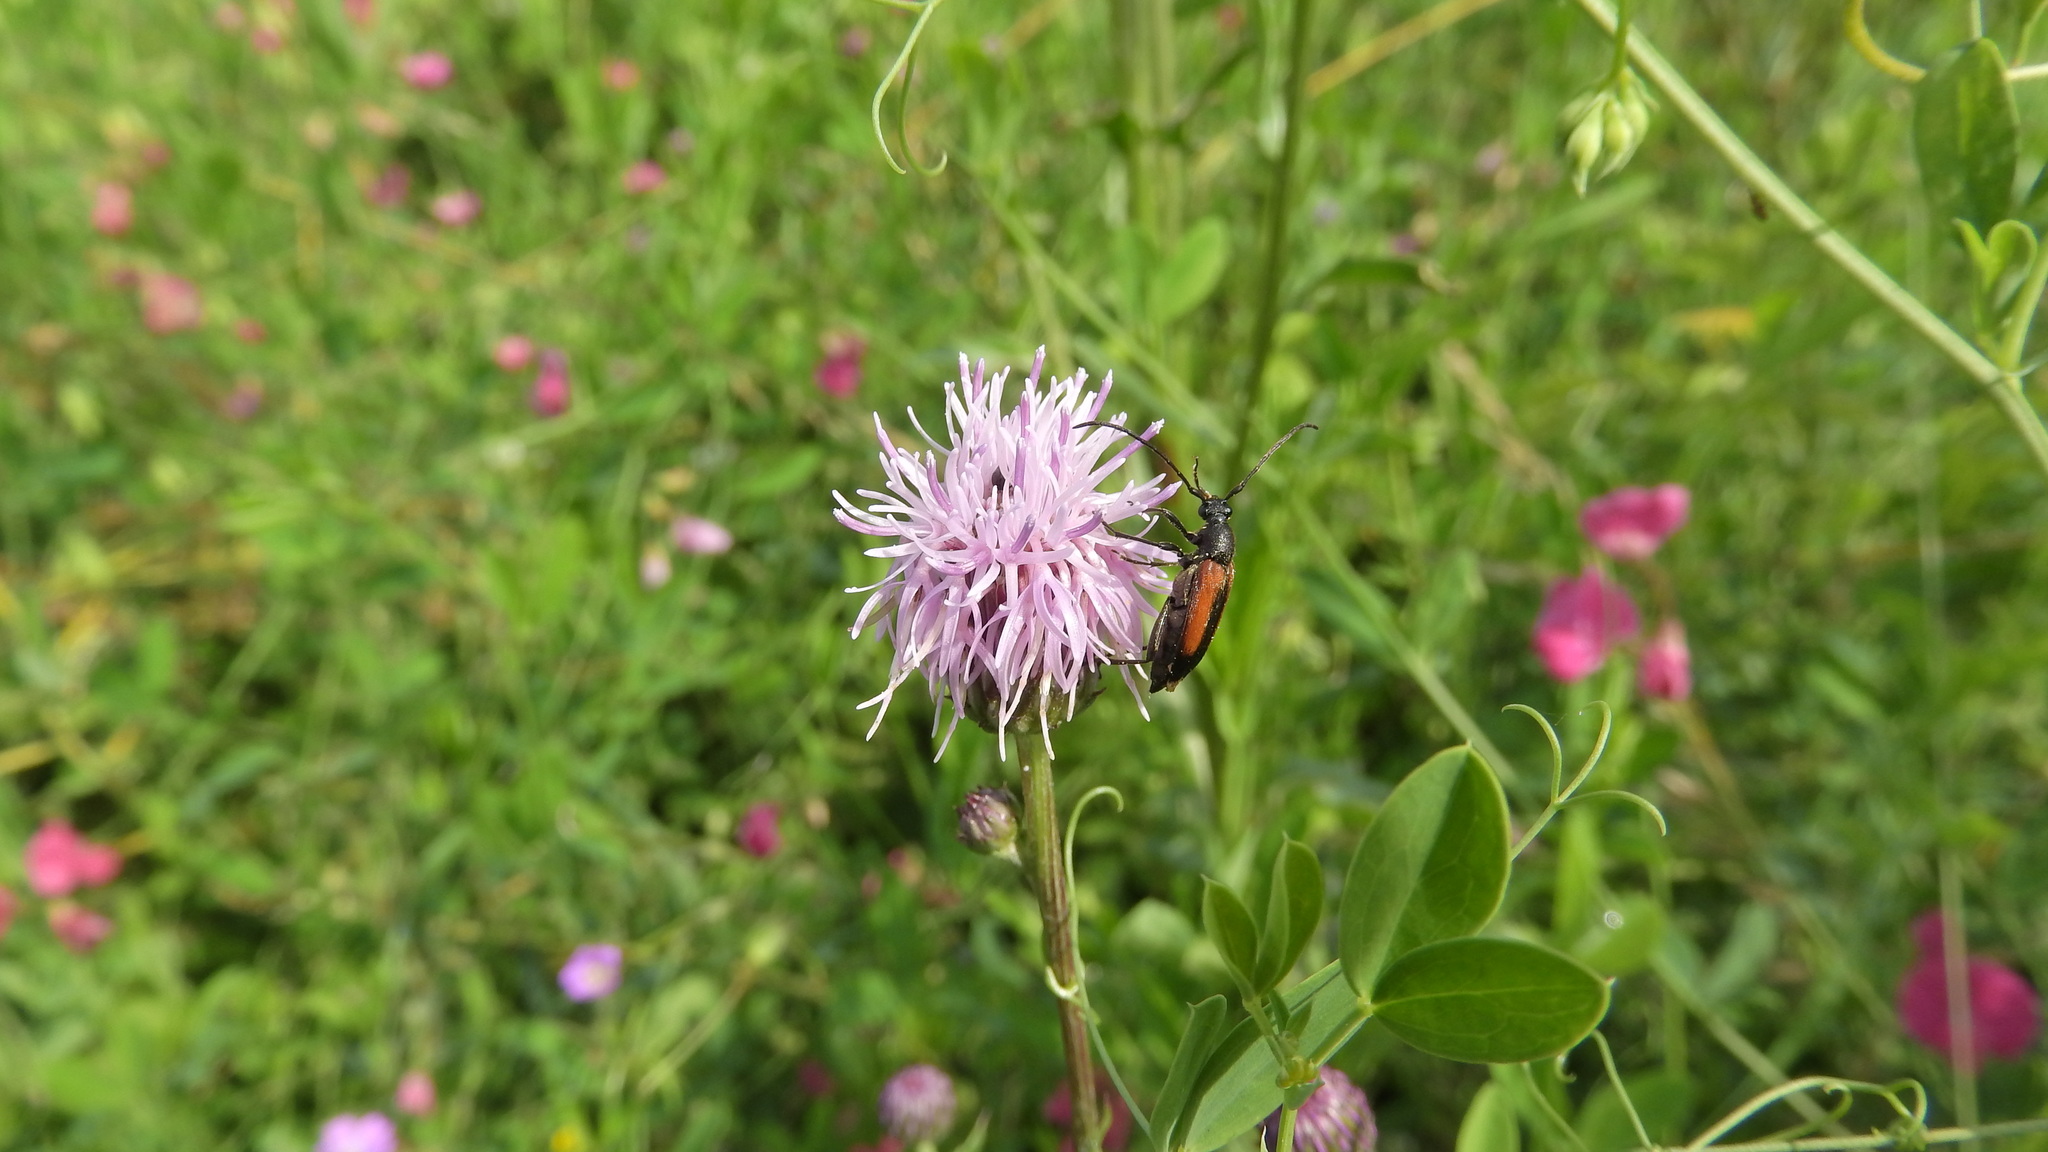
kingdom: Animalia
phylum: Arthropoda
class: Insecta
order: Coleoptera
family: Cerambycidae
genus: Stenurella
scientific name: Stenurella melanura
